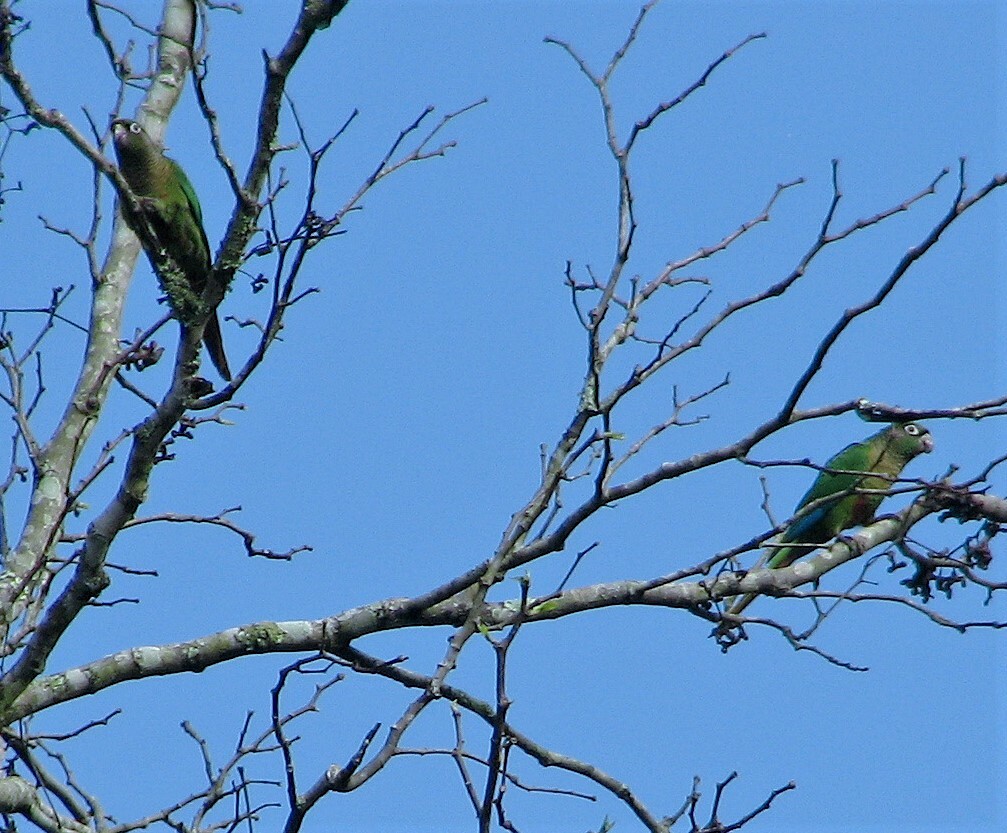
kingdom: Animalia
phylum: Chordata
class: Aves
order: Psittaciformes
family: Psittacidae
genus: Pyrrhura
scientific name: Pyrrhura frontalis
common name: Maroon-bellied parakeet
